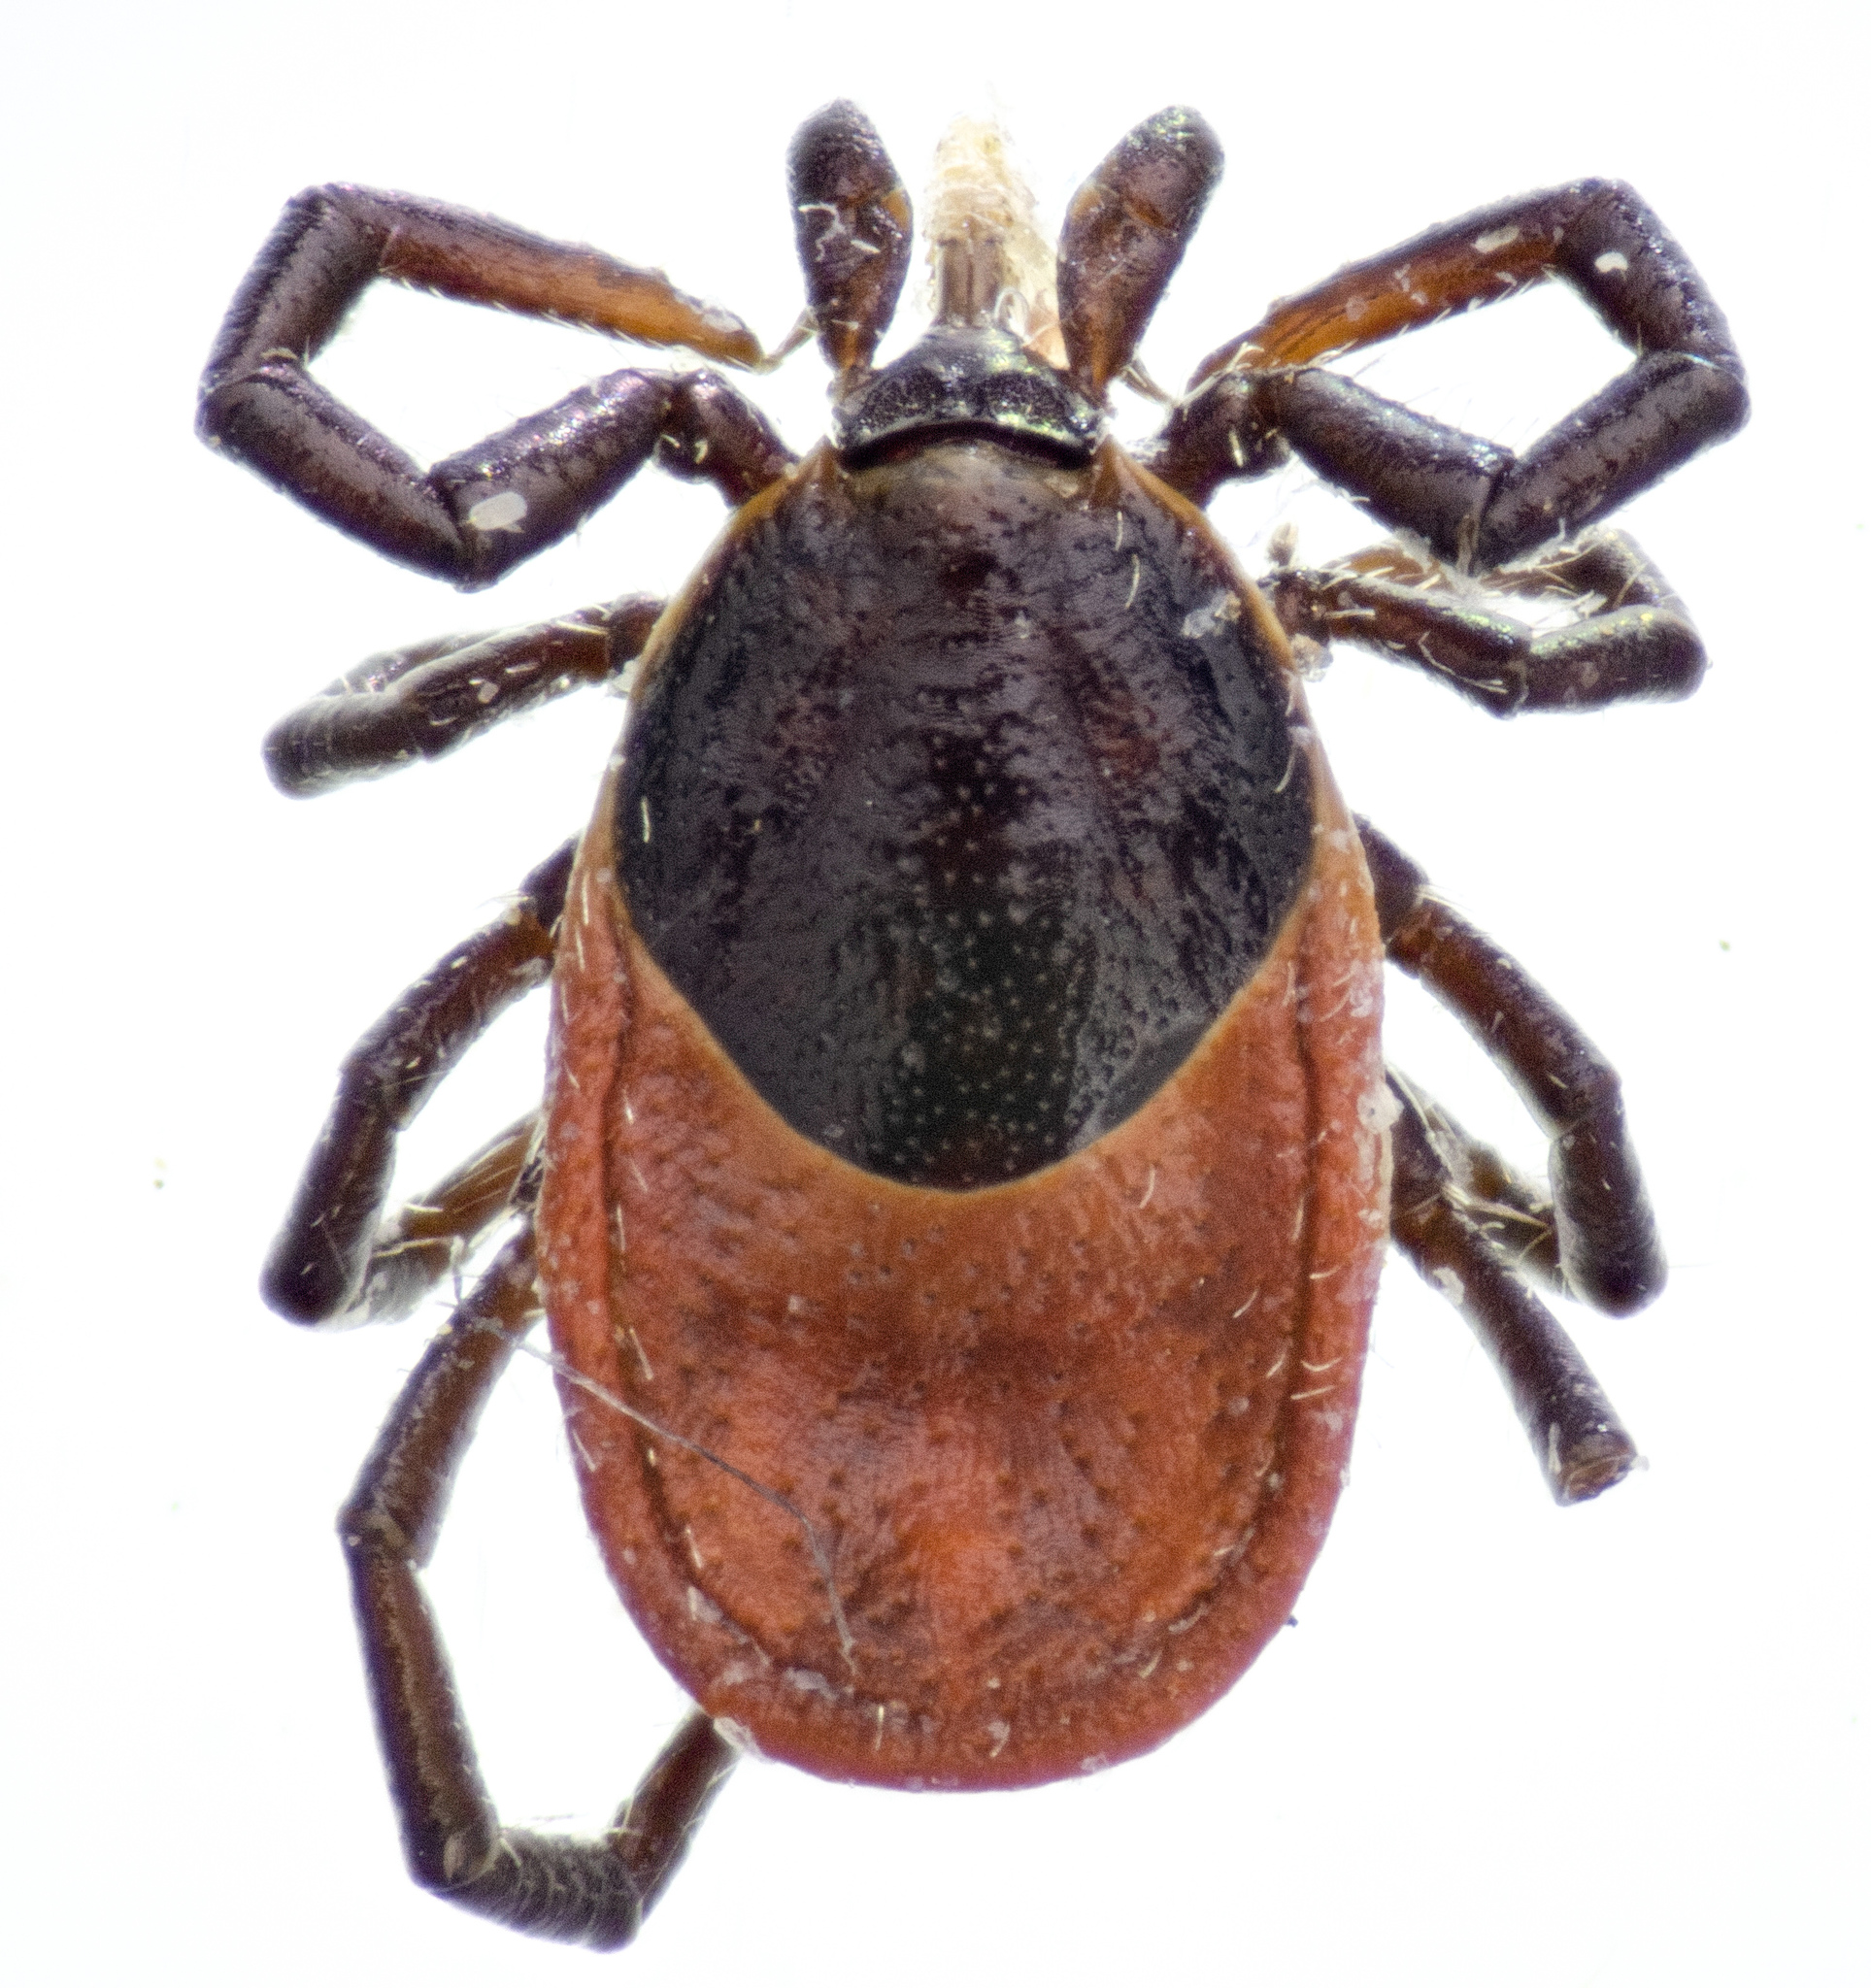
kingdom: Animalia
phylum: Arthropoda
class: Arachnida
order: Ixodida
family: Ixodidae
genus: Ixodes
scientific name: Ixodes pacificus
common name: California black-legged tick
